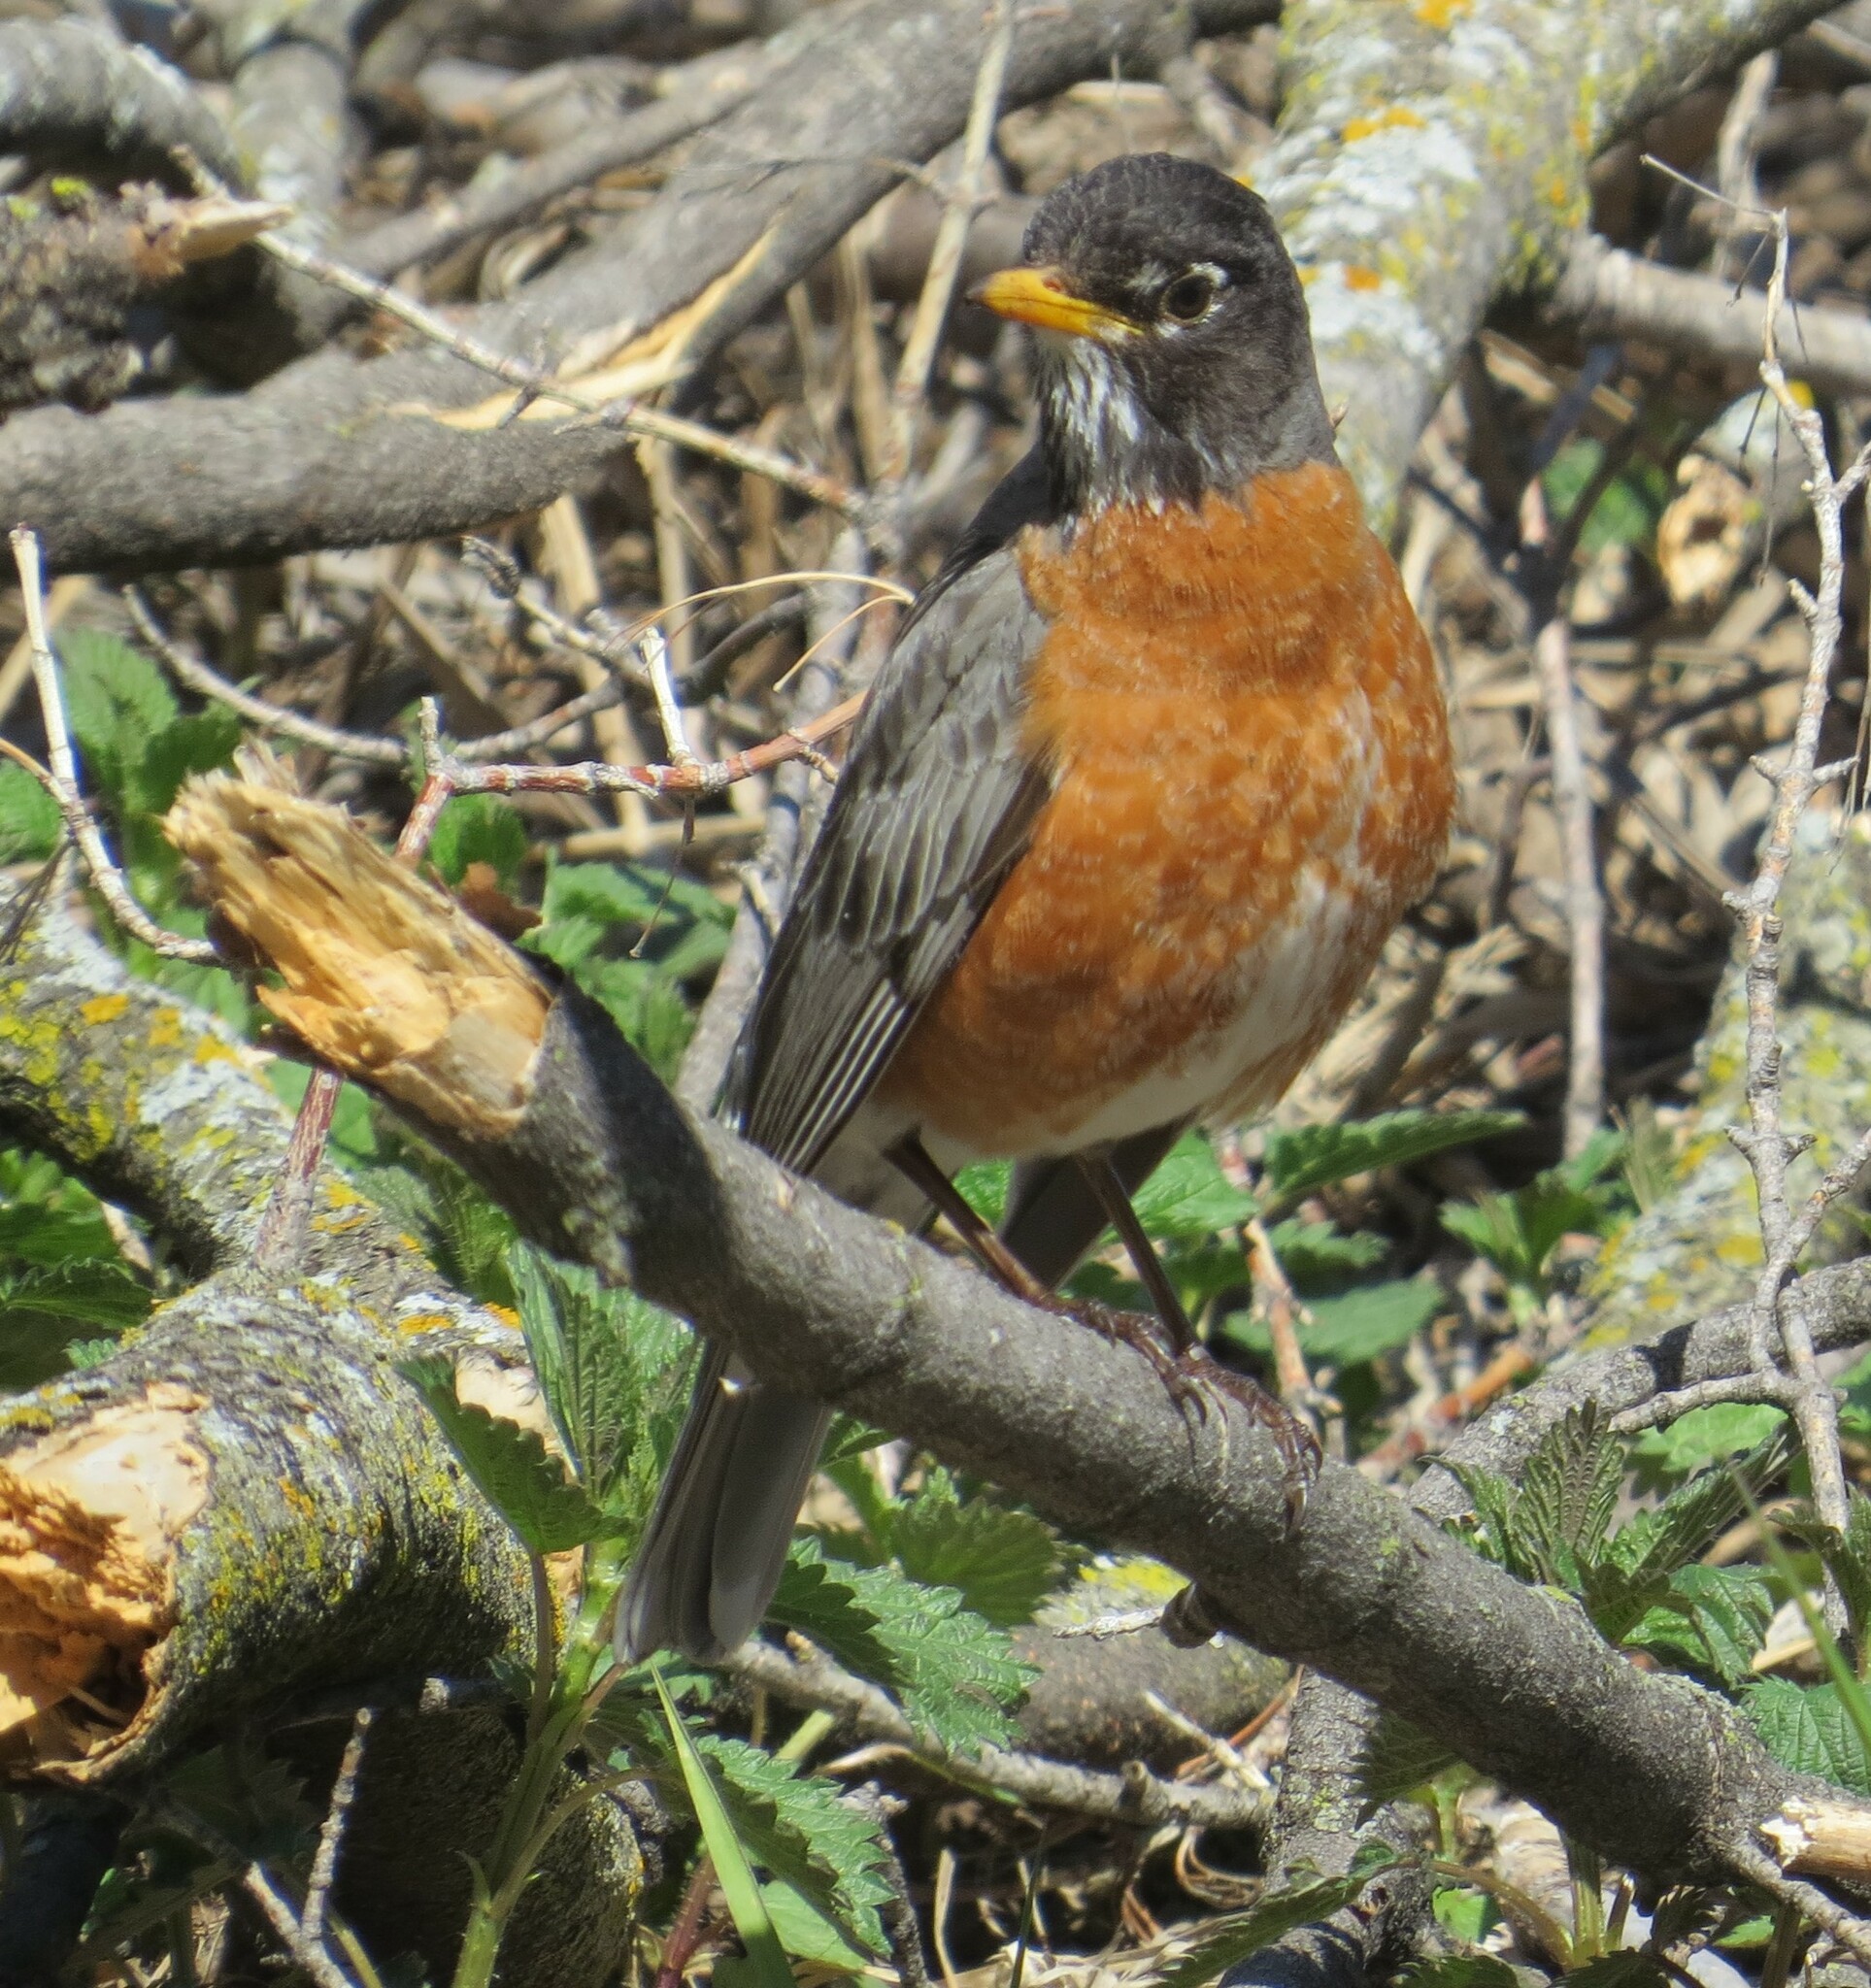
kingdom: Animalia
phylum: Chordata
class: Aves
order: Passeriformes
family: Turdidae
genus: Turdus
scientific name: Turdus migratorius
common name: American robin
